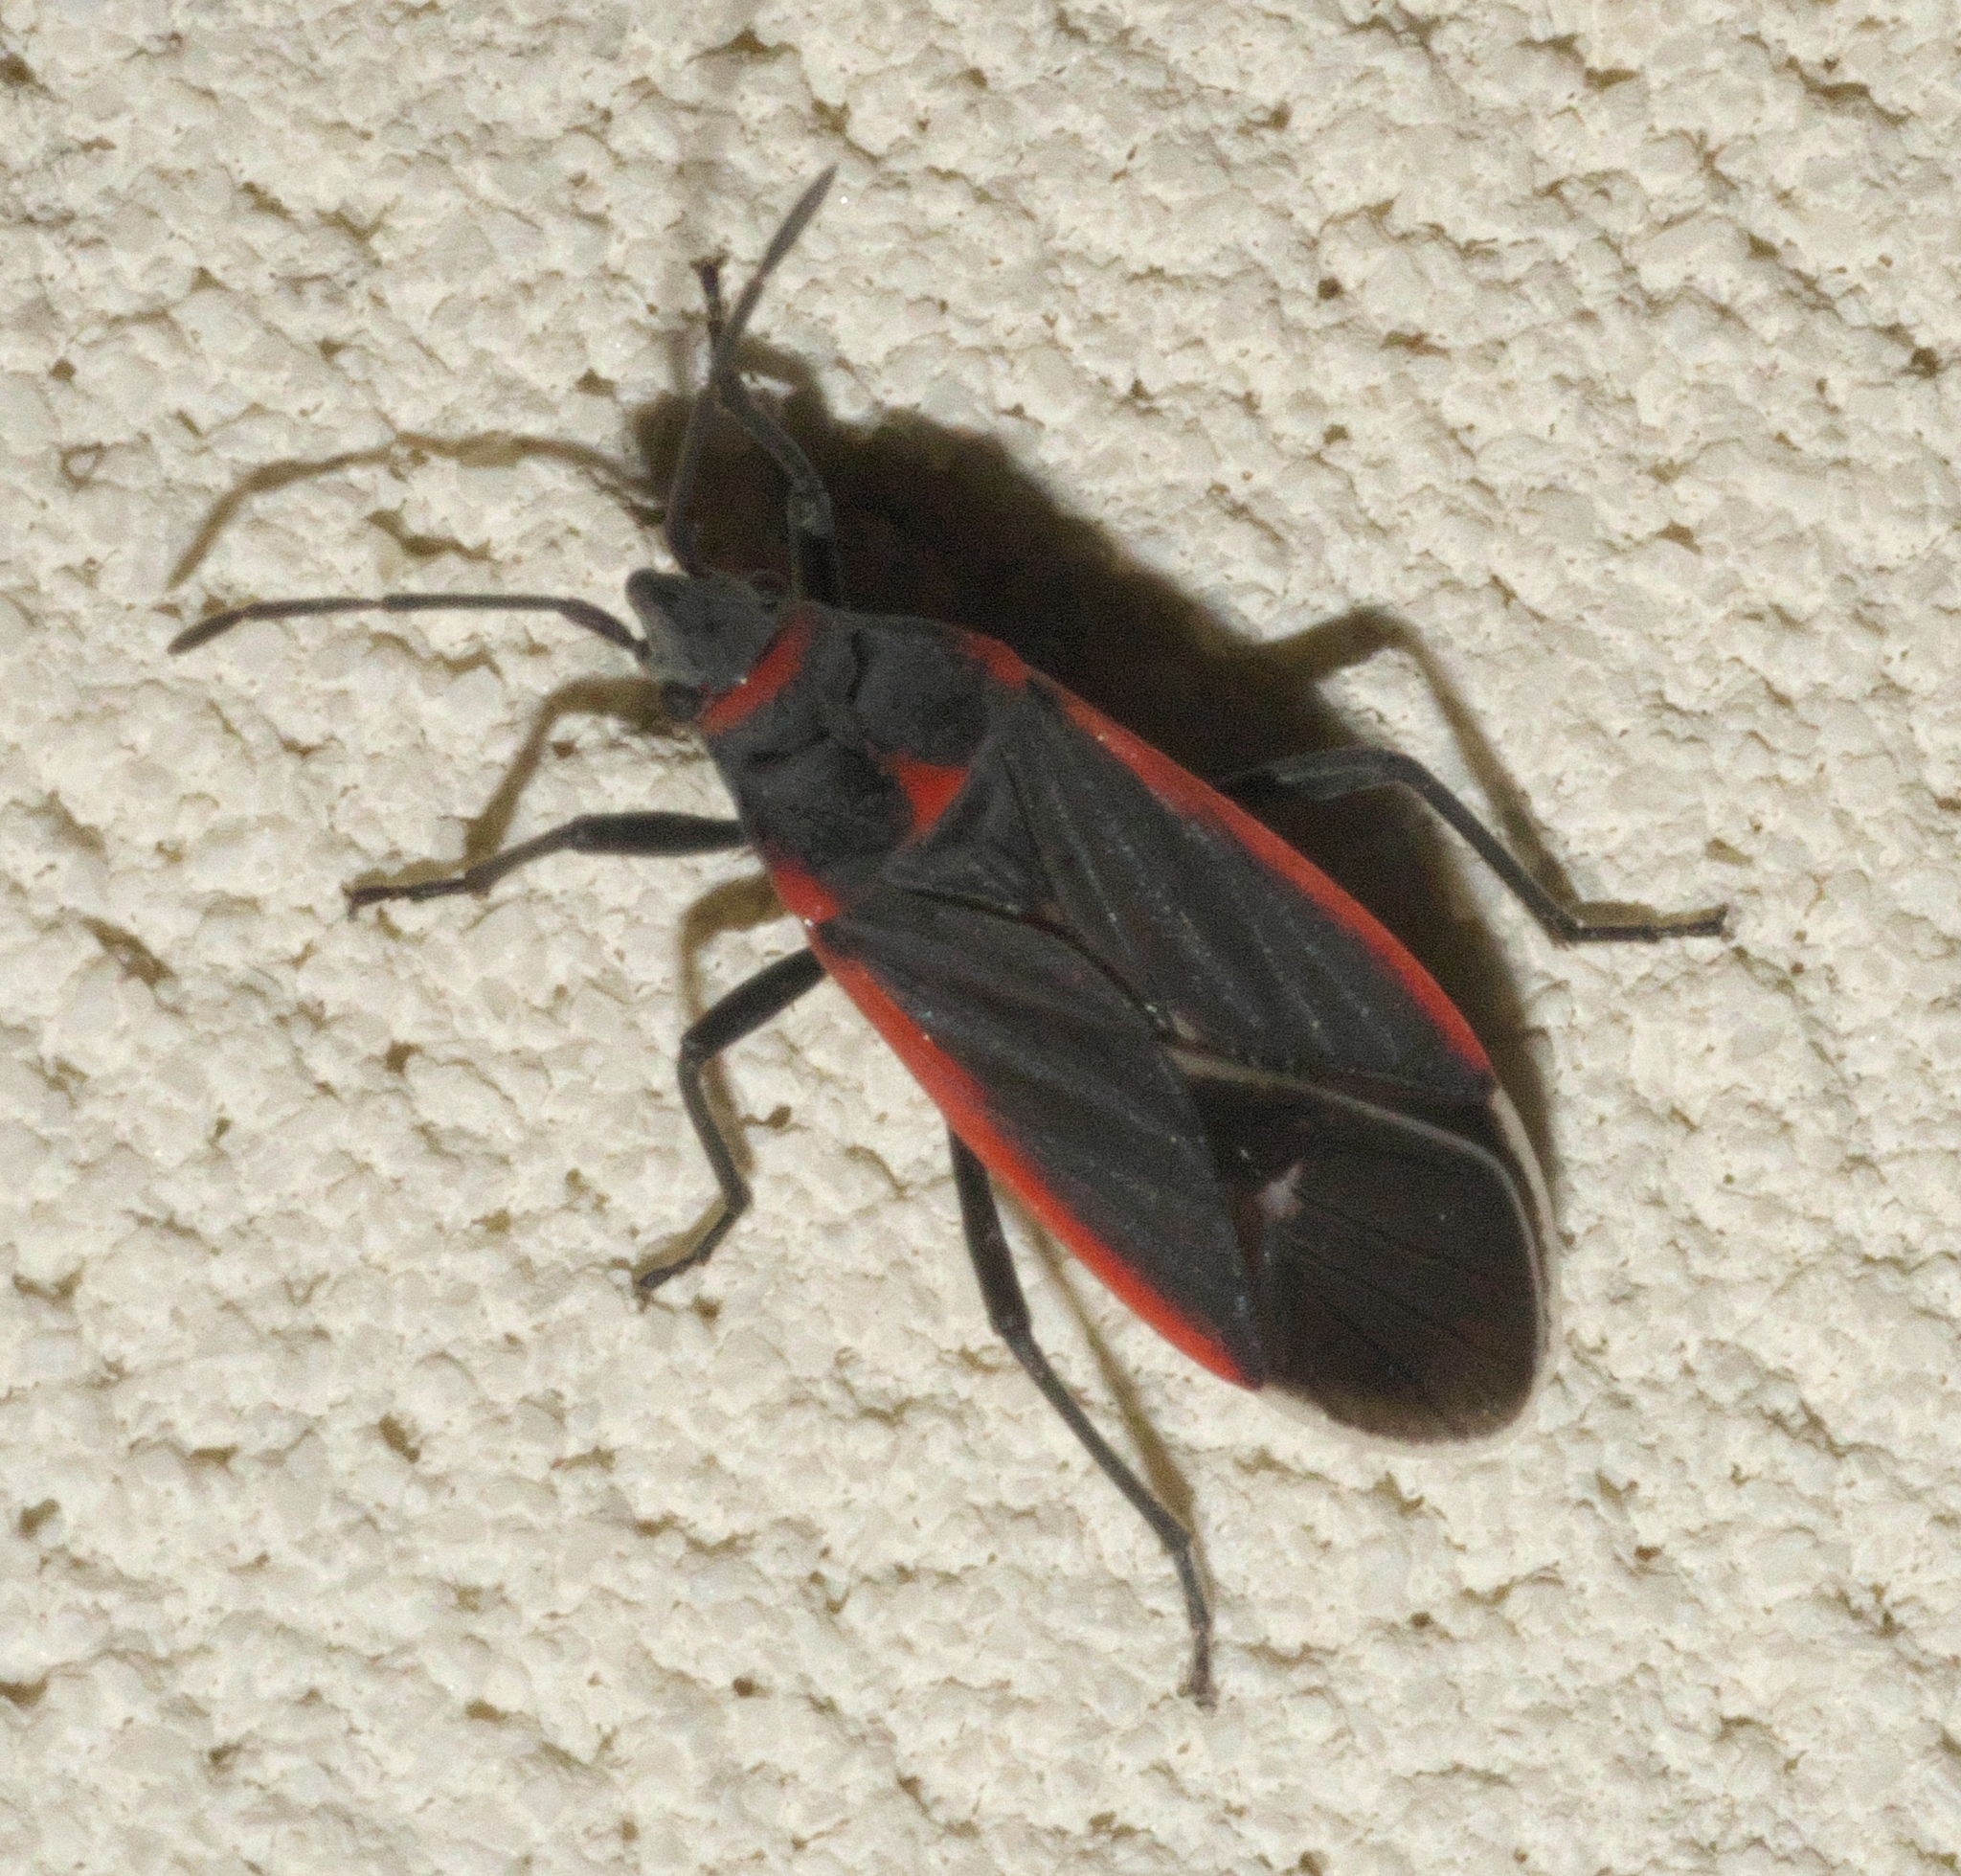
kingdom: Animalia
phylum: Arthropoda
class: Insecta
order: Hemiptera
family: Lygaeidae
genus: Melacoryphus
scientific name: Melacoryphus lateralis
